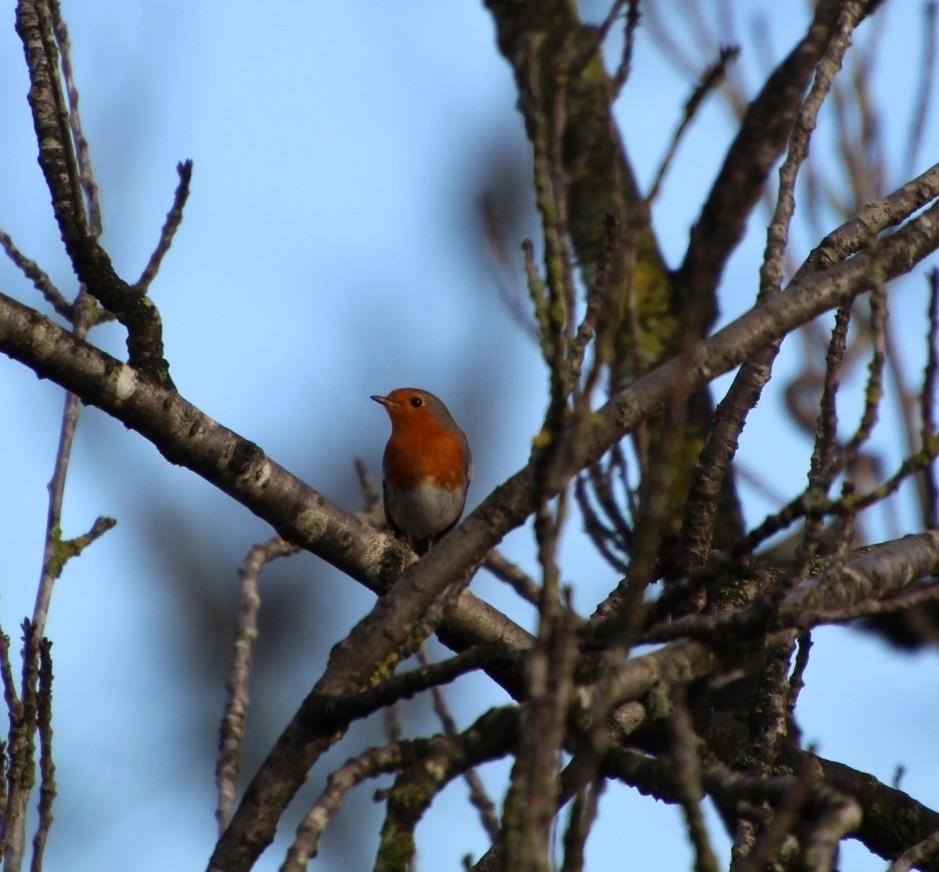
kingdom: Animalia
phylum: Chordata
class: Aves
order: Passeriformes
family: Muscicapidae
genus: Erithacus
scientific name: Erithacus rubecula
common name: European robin
